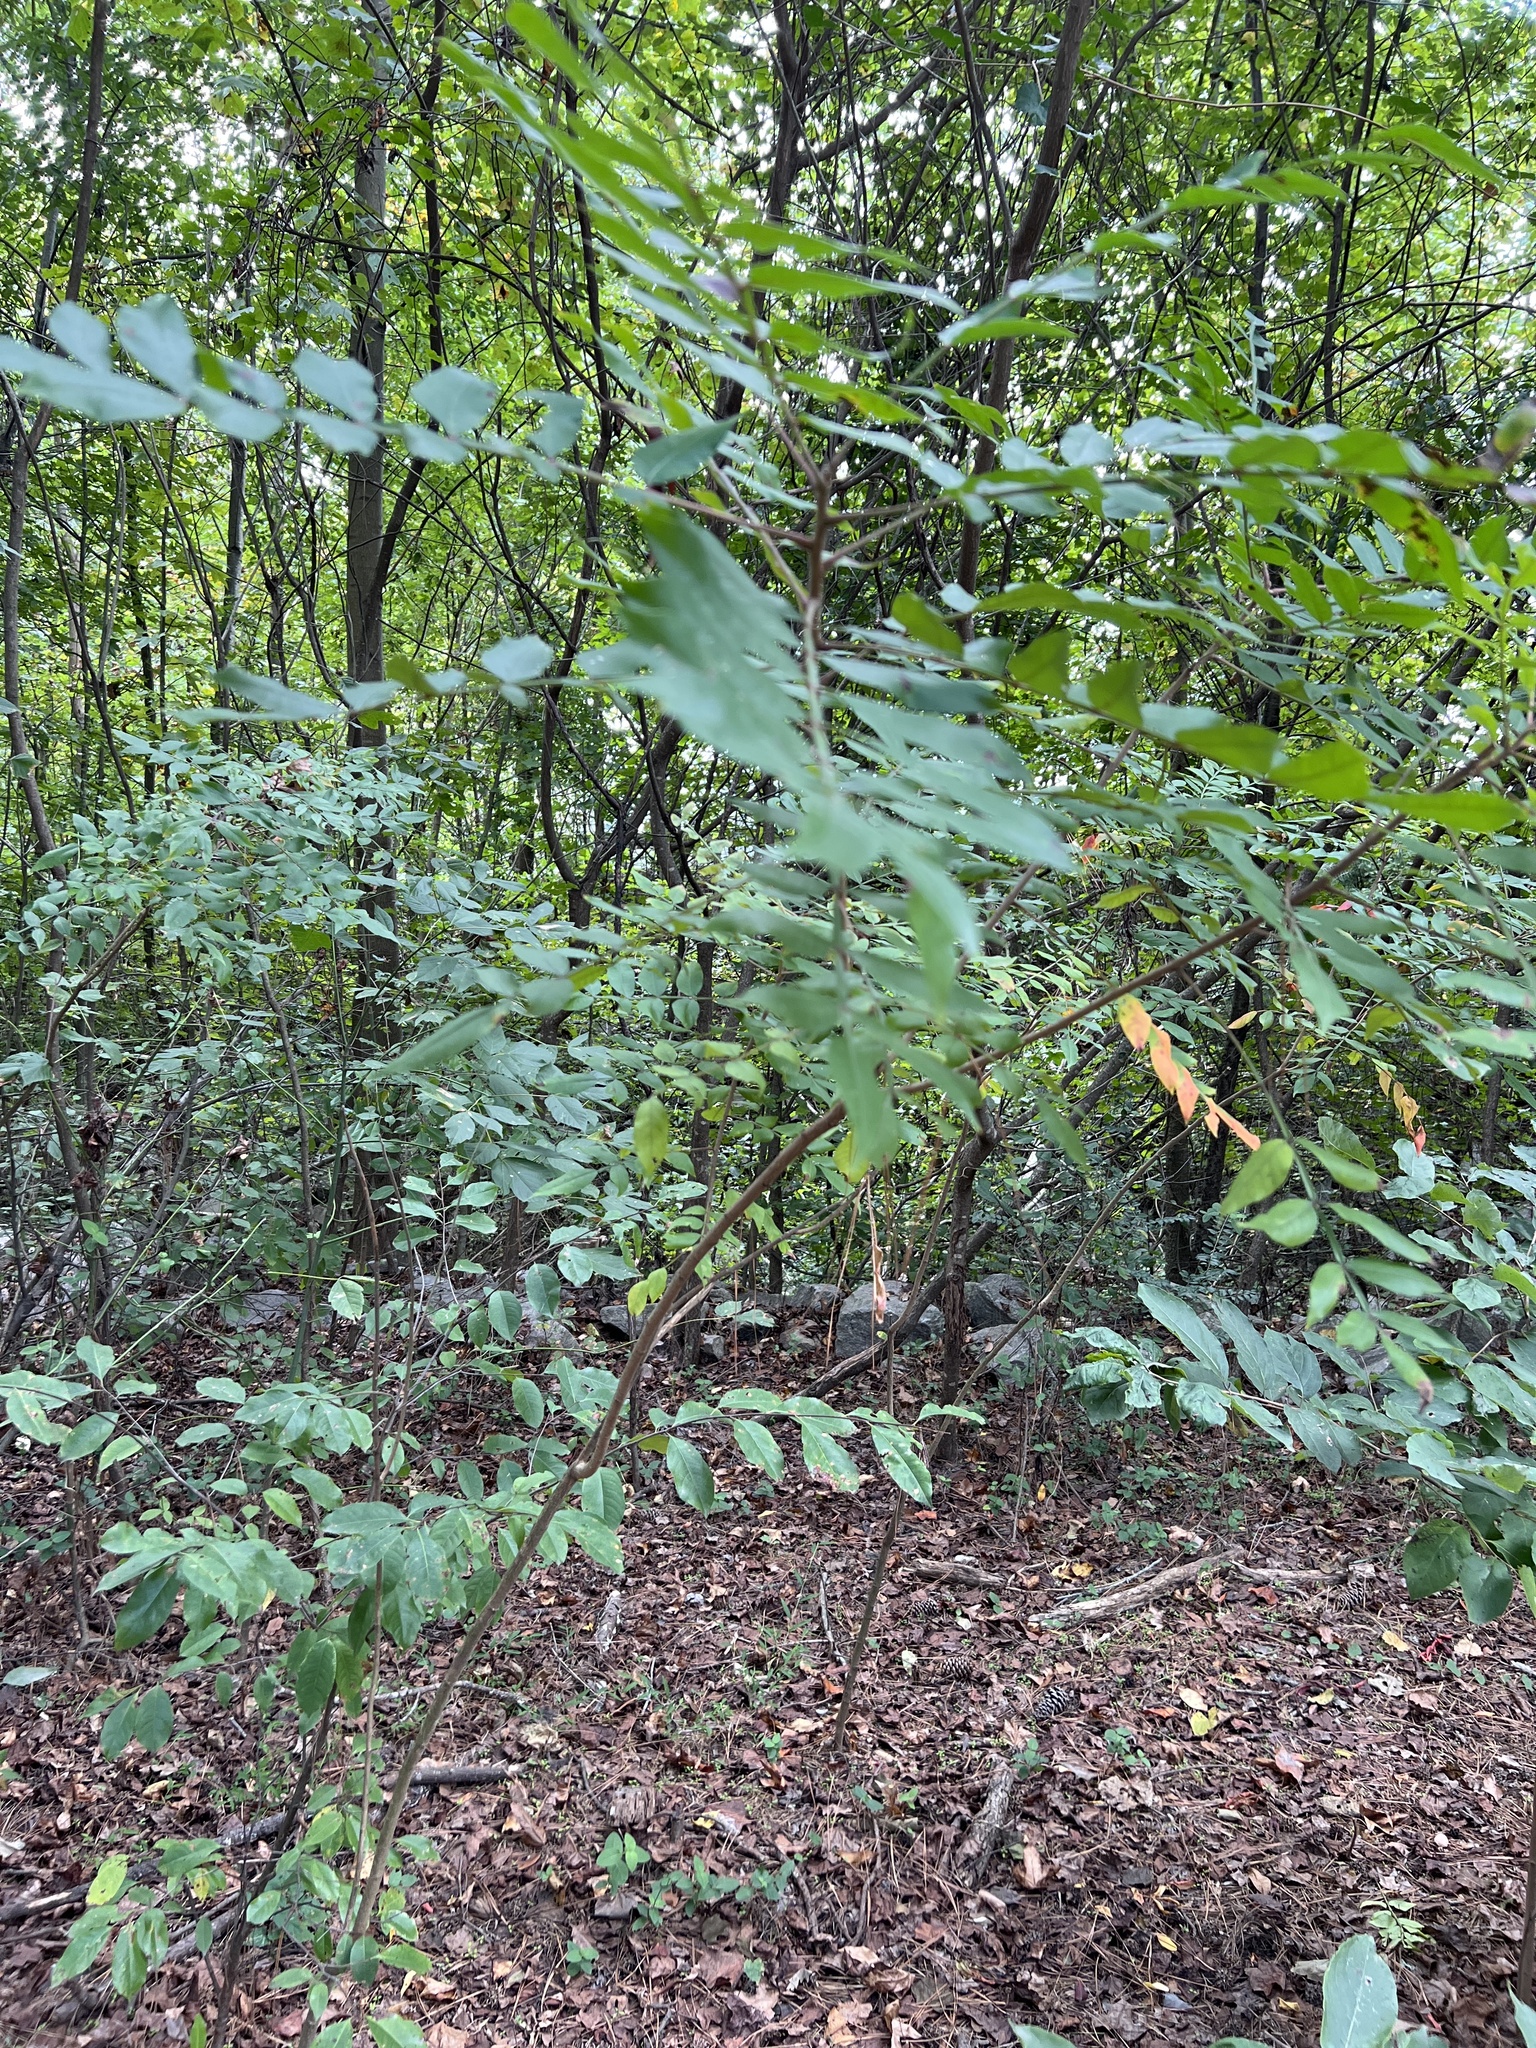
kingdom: Plantae
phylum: Tracheophyta
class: Magnoliopsida
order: Sapindales
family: Anacardiaceae
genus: Rhus
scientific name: Rhus copallina
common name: Shining sumac
